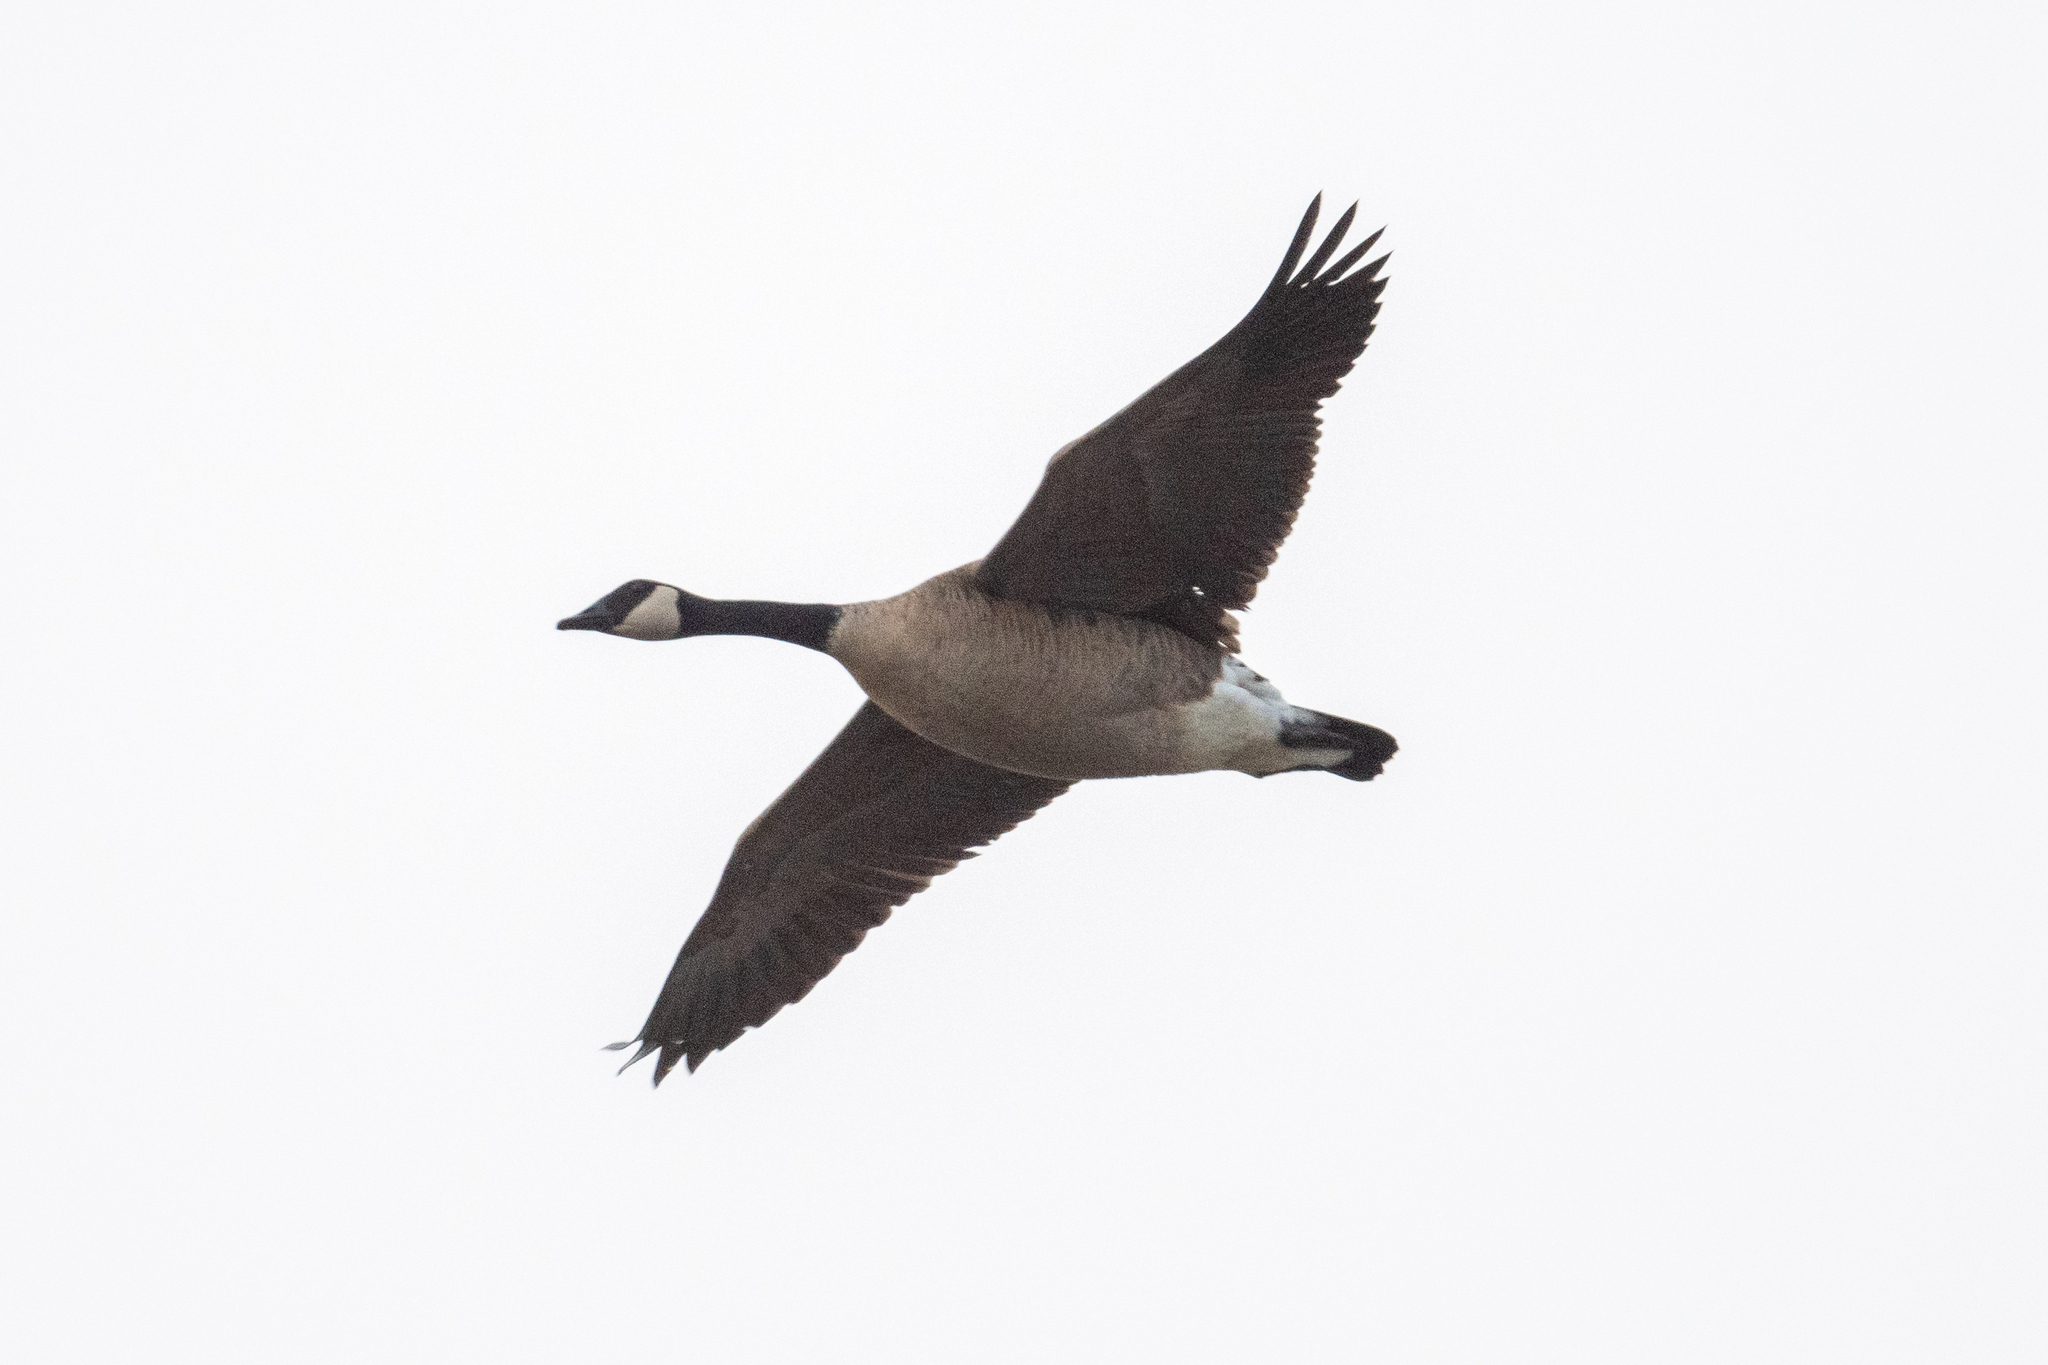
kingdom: Animalia
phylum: Chordata
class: Aves
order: Anseriformes
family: Anatidae
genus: Branta
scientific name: Branta canadensis
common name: Canada goose
